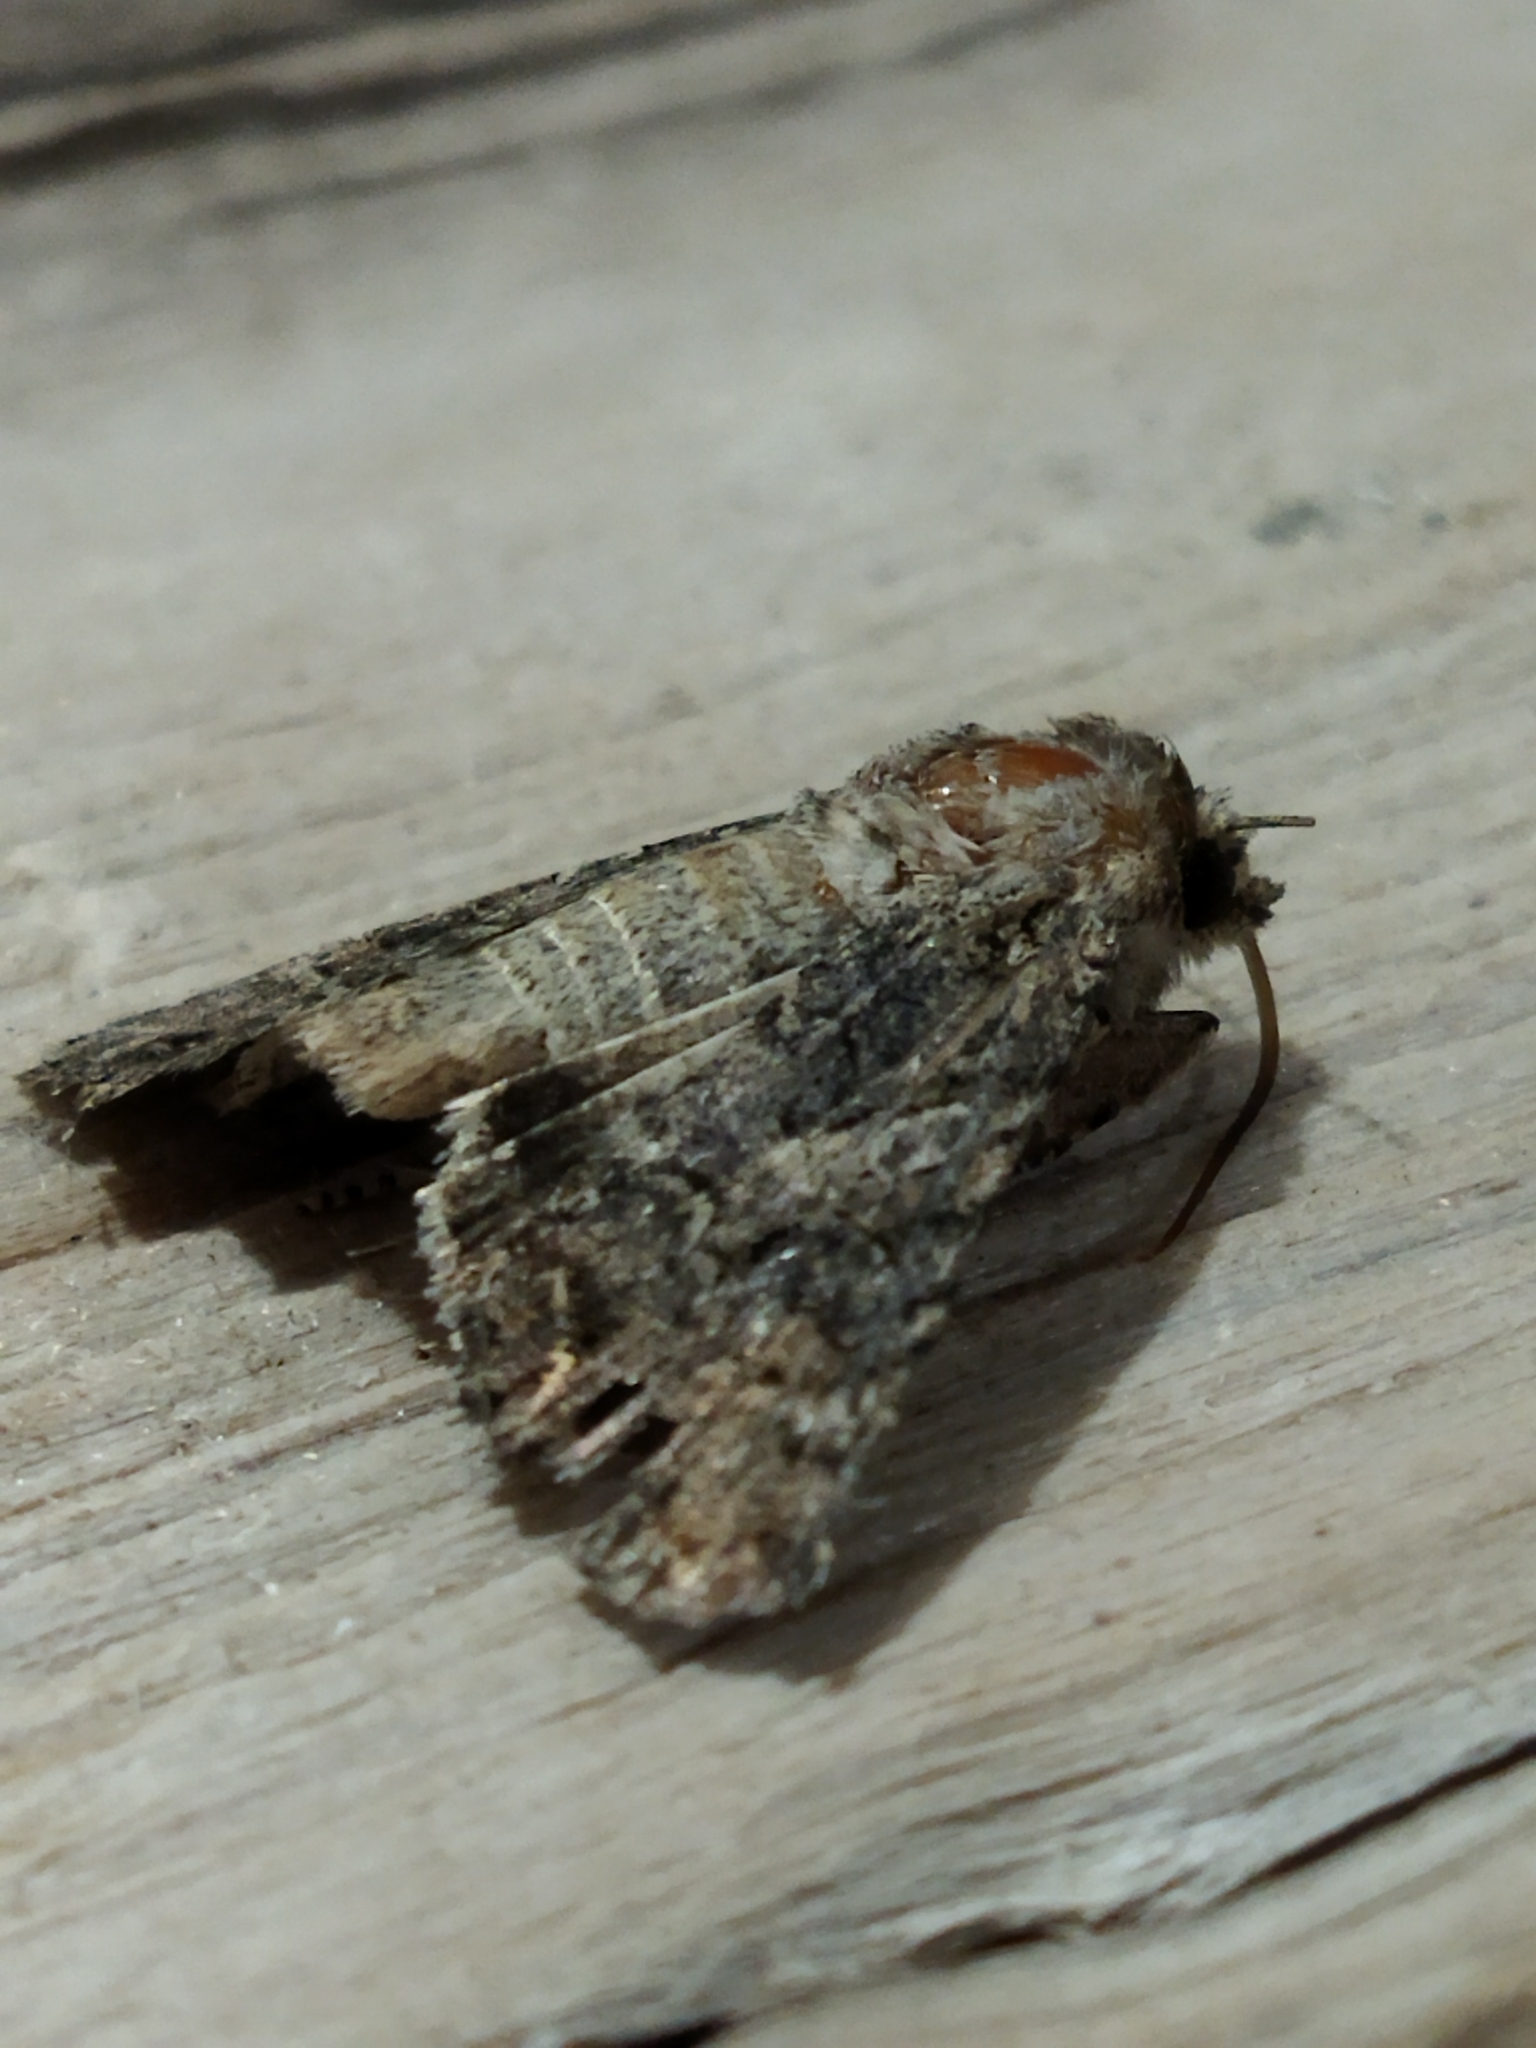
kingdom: Animalia
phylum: Arthropoda
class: Insecta
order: Lepidoptera
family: Noctuidae
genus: Anarta
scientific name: Anarta trifolii
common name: Clover cutworm moth
